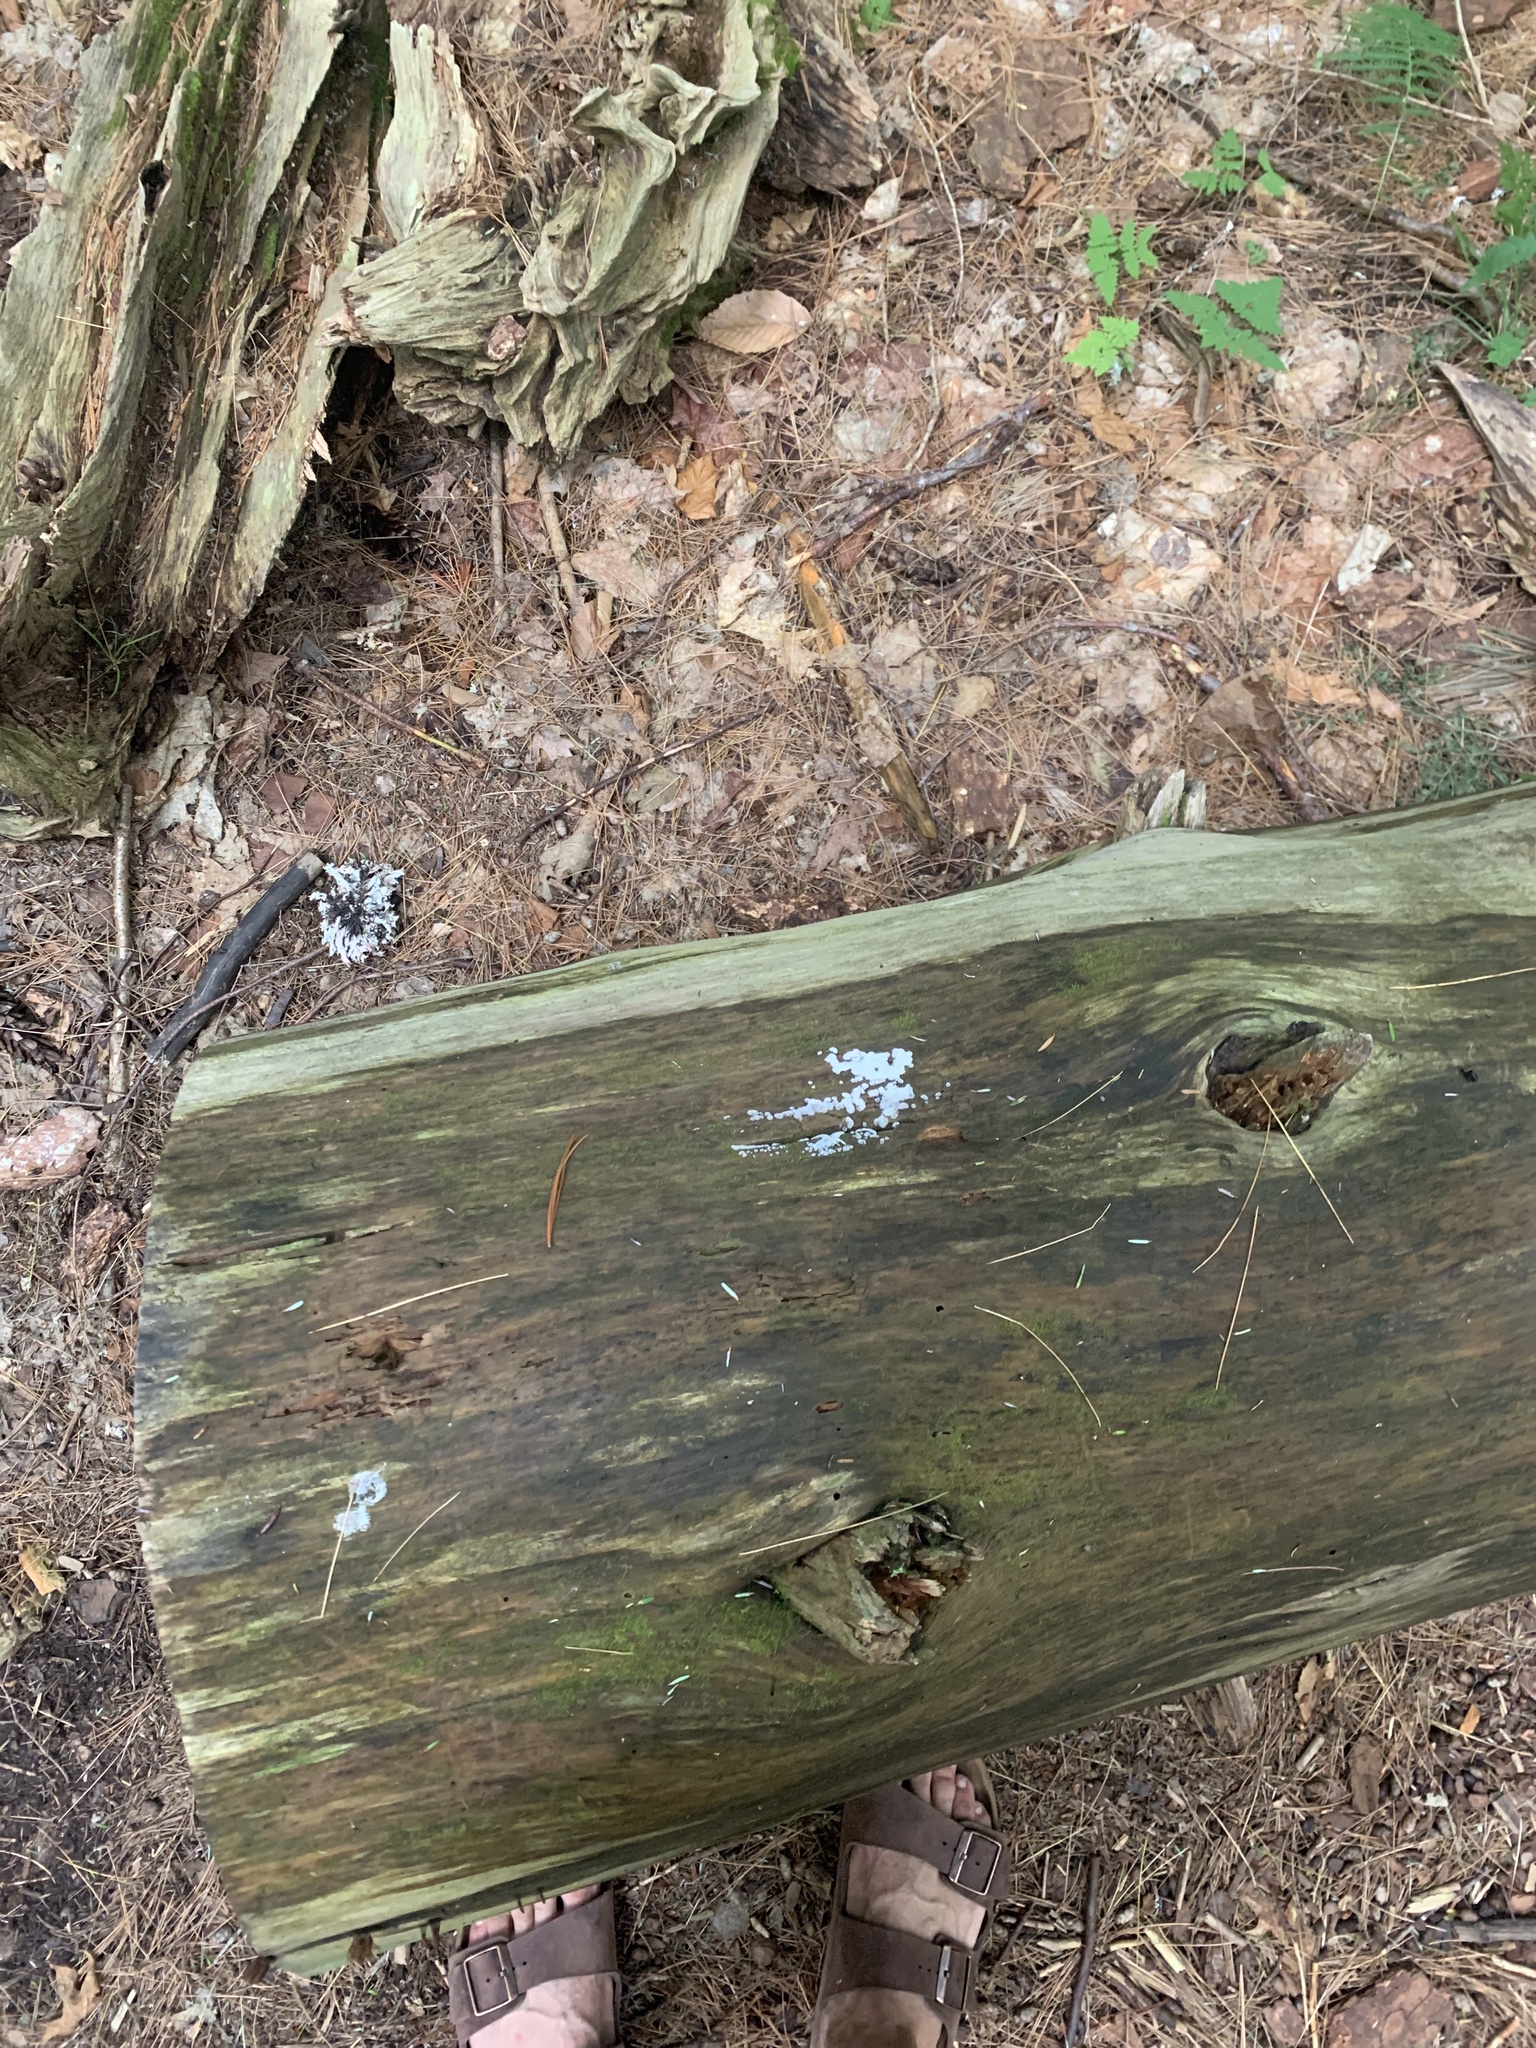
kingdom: Protozoa
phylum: Mycetozoa
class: Protosteliomycetes
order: Ceratiomyxales
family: Ceratiomyxaceae
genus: Ceratiomyxa
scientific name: Ceratiomyxa fruticulosa
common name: Honeycomb coral slime mold
